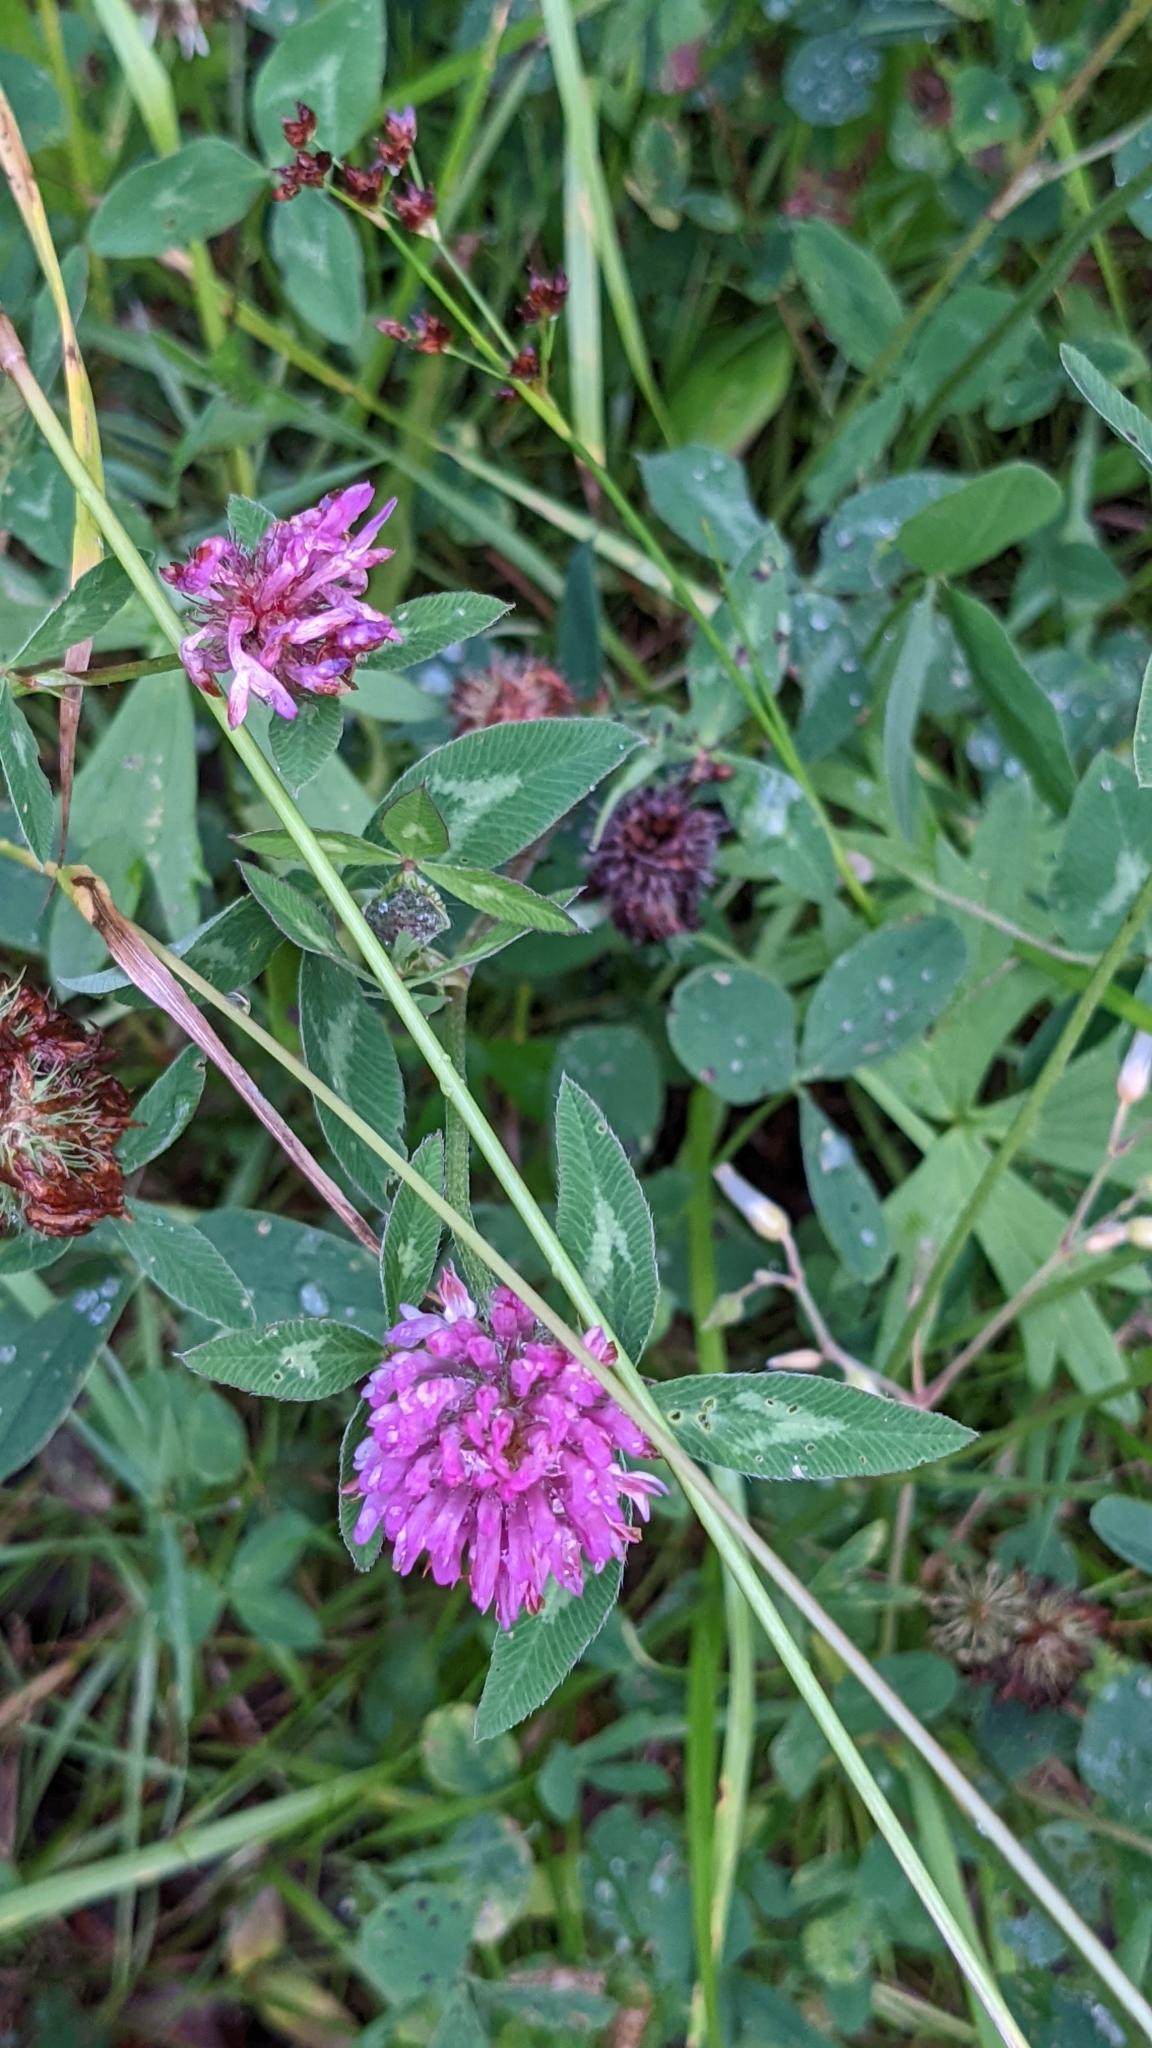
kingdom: Plantae
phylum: Tracheophyta
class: Magnoliopsida
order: Fabales
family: Fabaceae
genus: Trifolium
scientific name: Trifolium pratense
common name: Red clover
